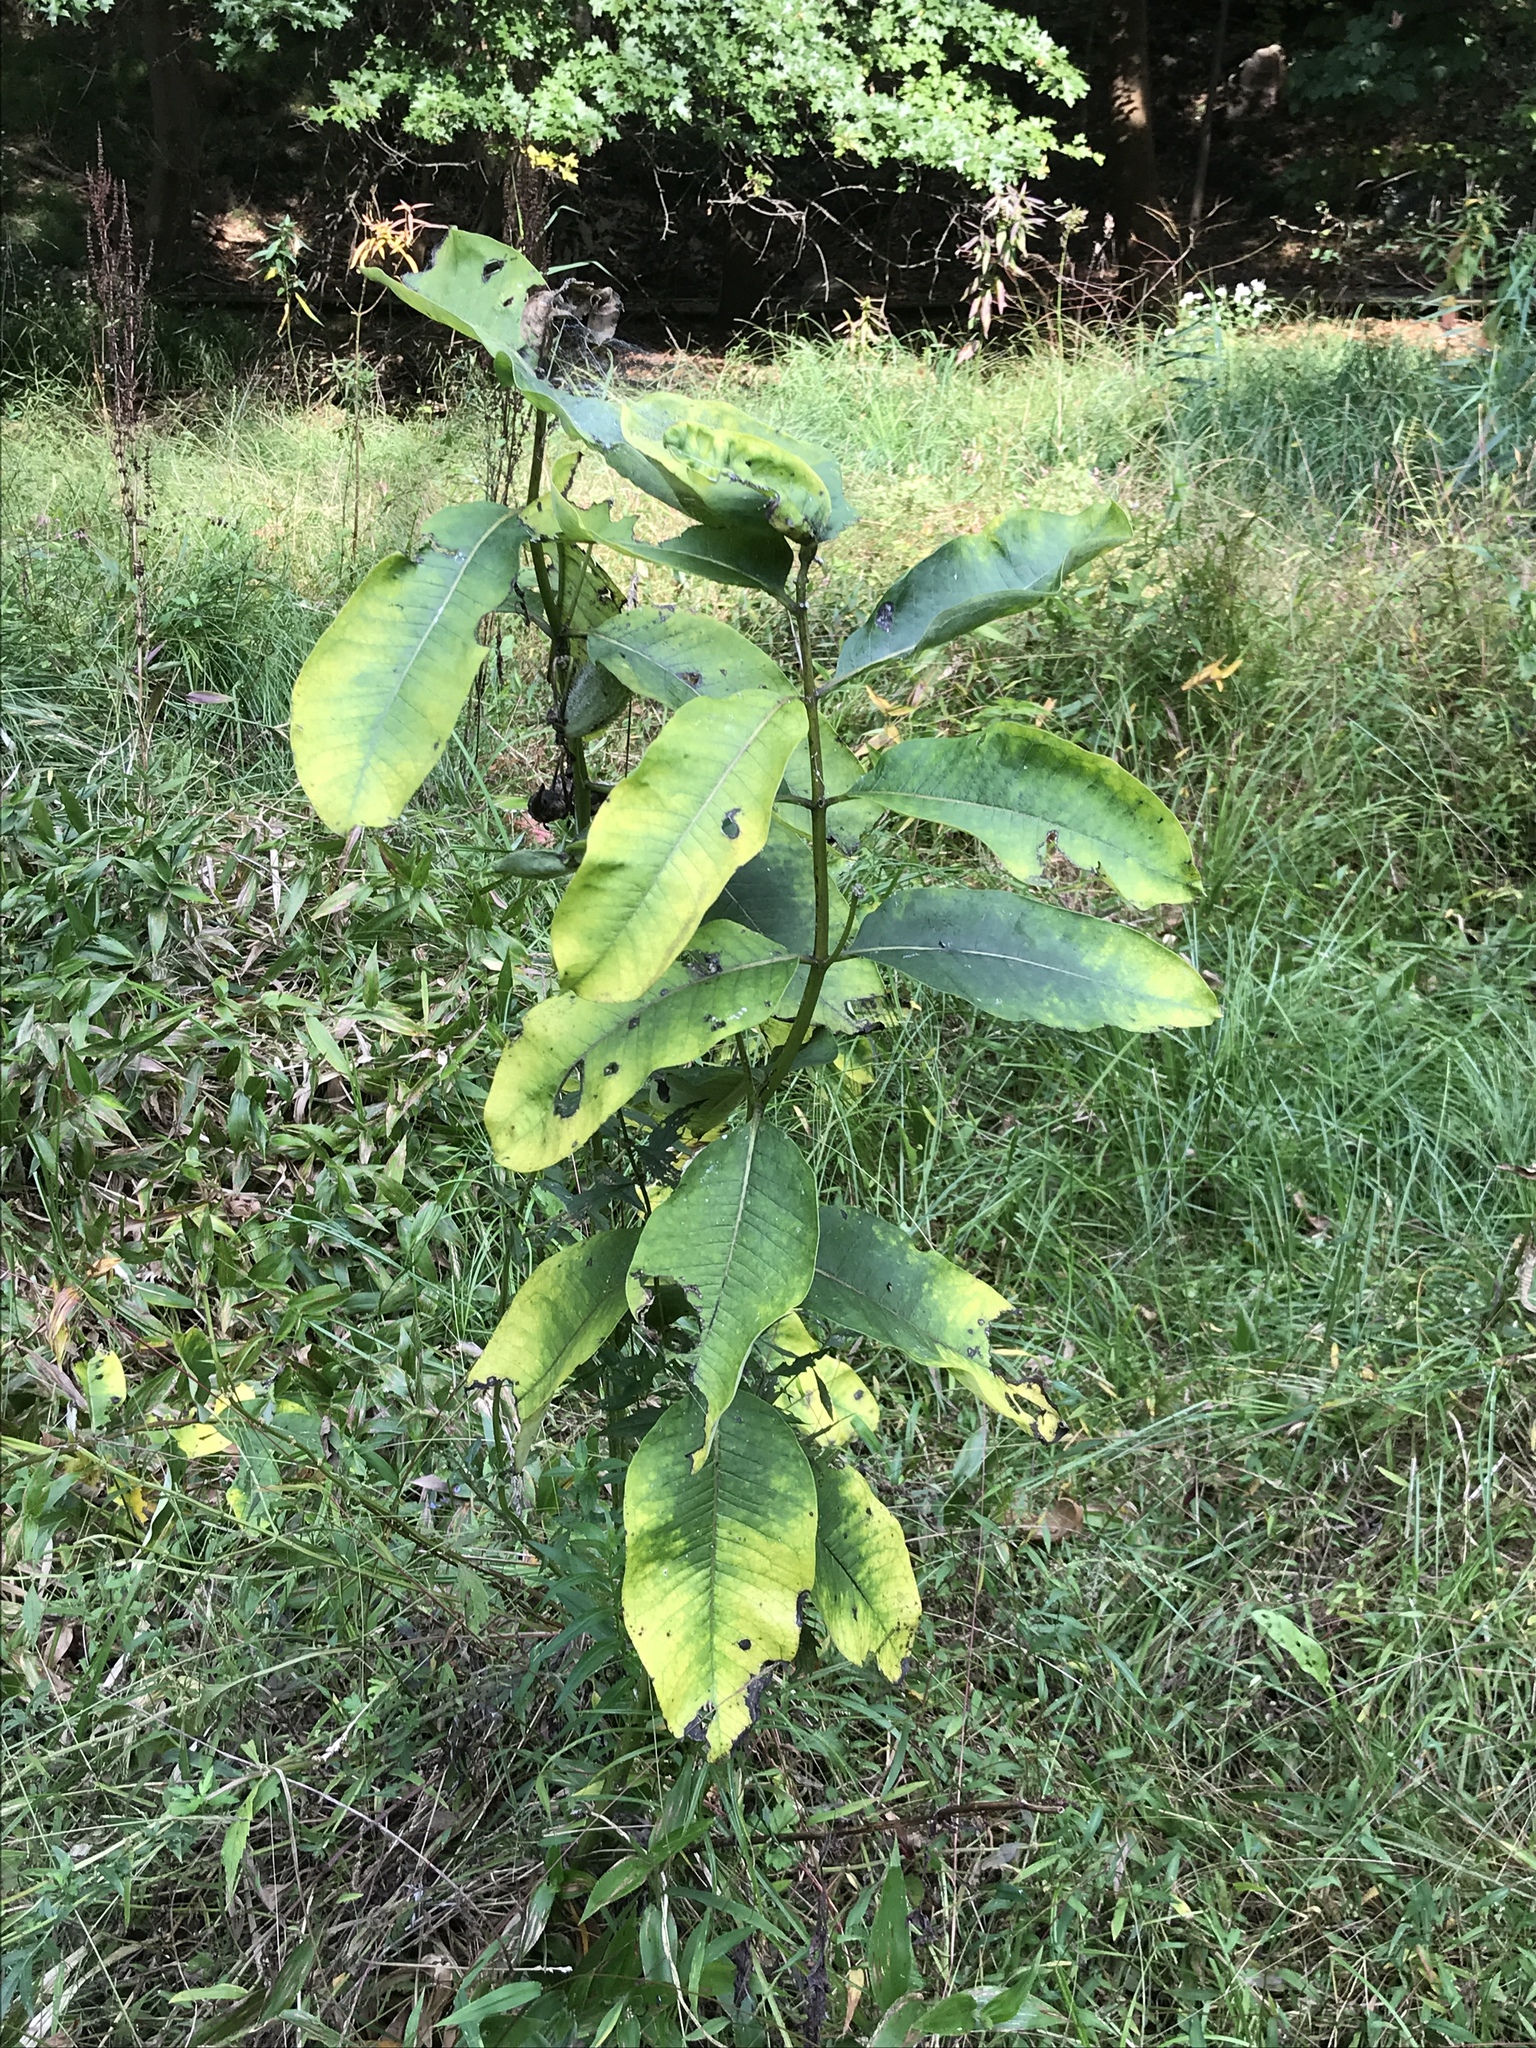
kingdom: Plantae
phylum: Tracheophyta
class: Magnoliopsida
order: Gentianales
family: Apocynaceae
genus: Asclepias
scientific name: Asclepias syriaca
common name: Common milkweed
